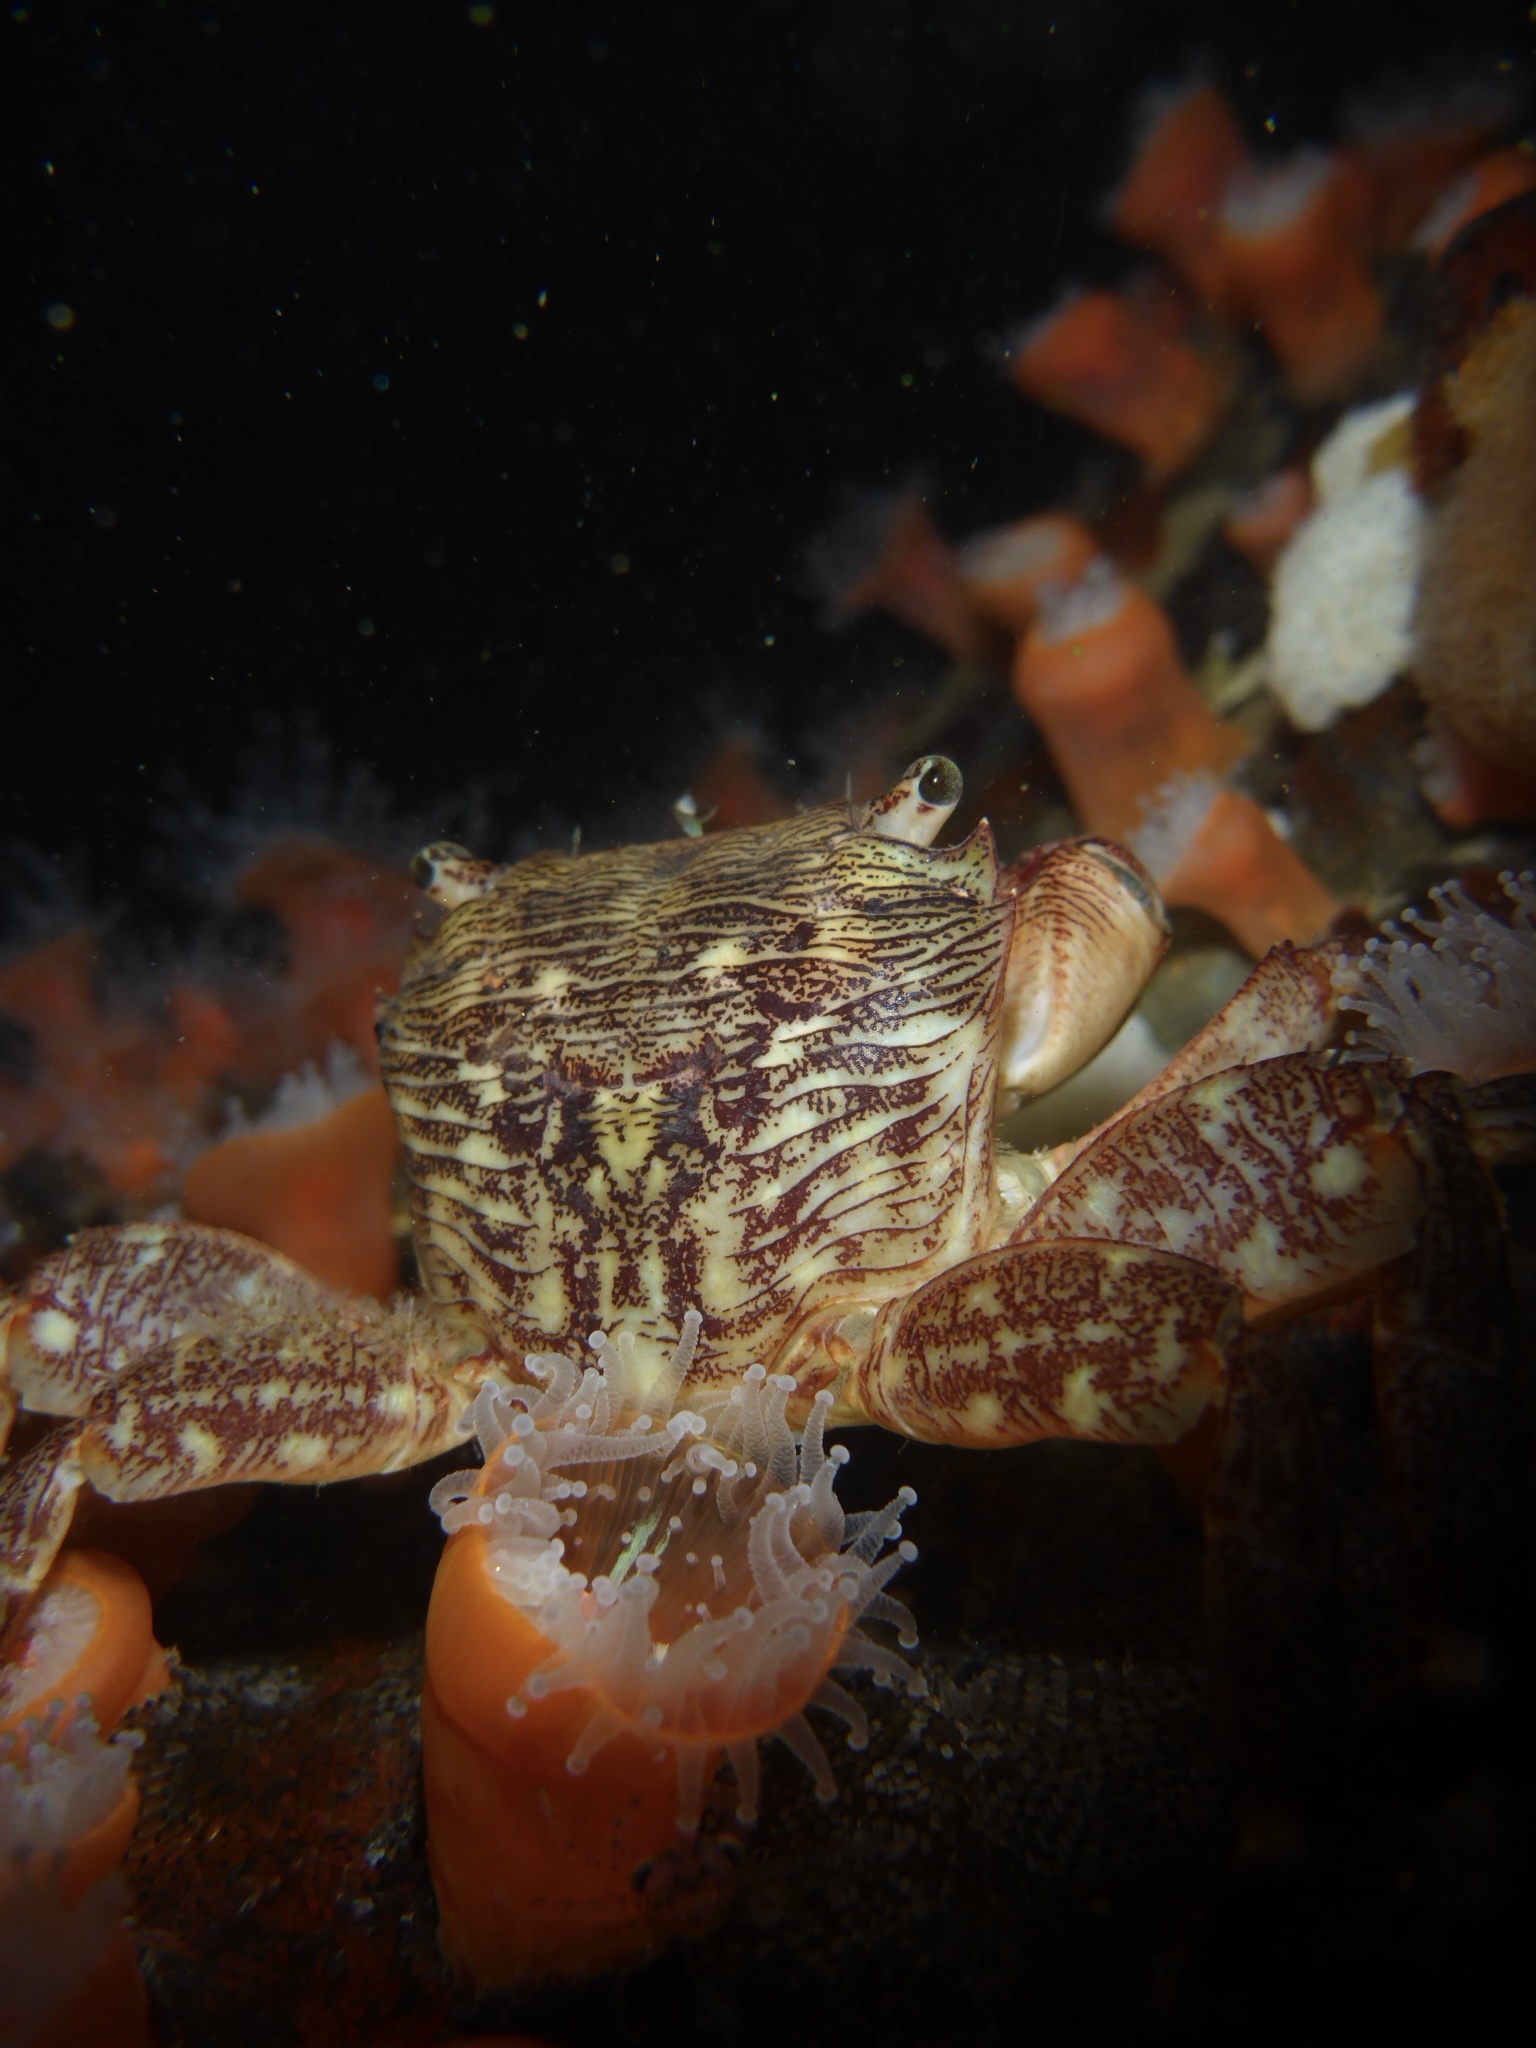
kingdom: Animalia
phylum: Arthropoda
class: Malacostraca
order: Decapoda
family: Grapsidae
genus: Pachygrapsus
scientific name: Pachygrapsus crassipes
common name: Striped shore crab
